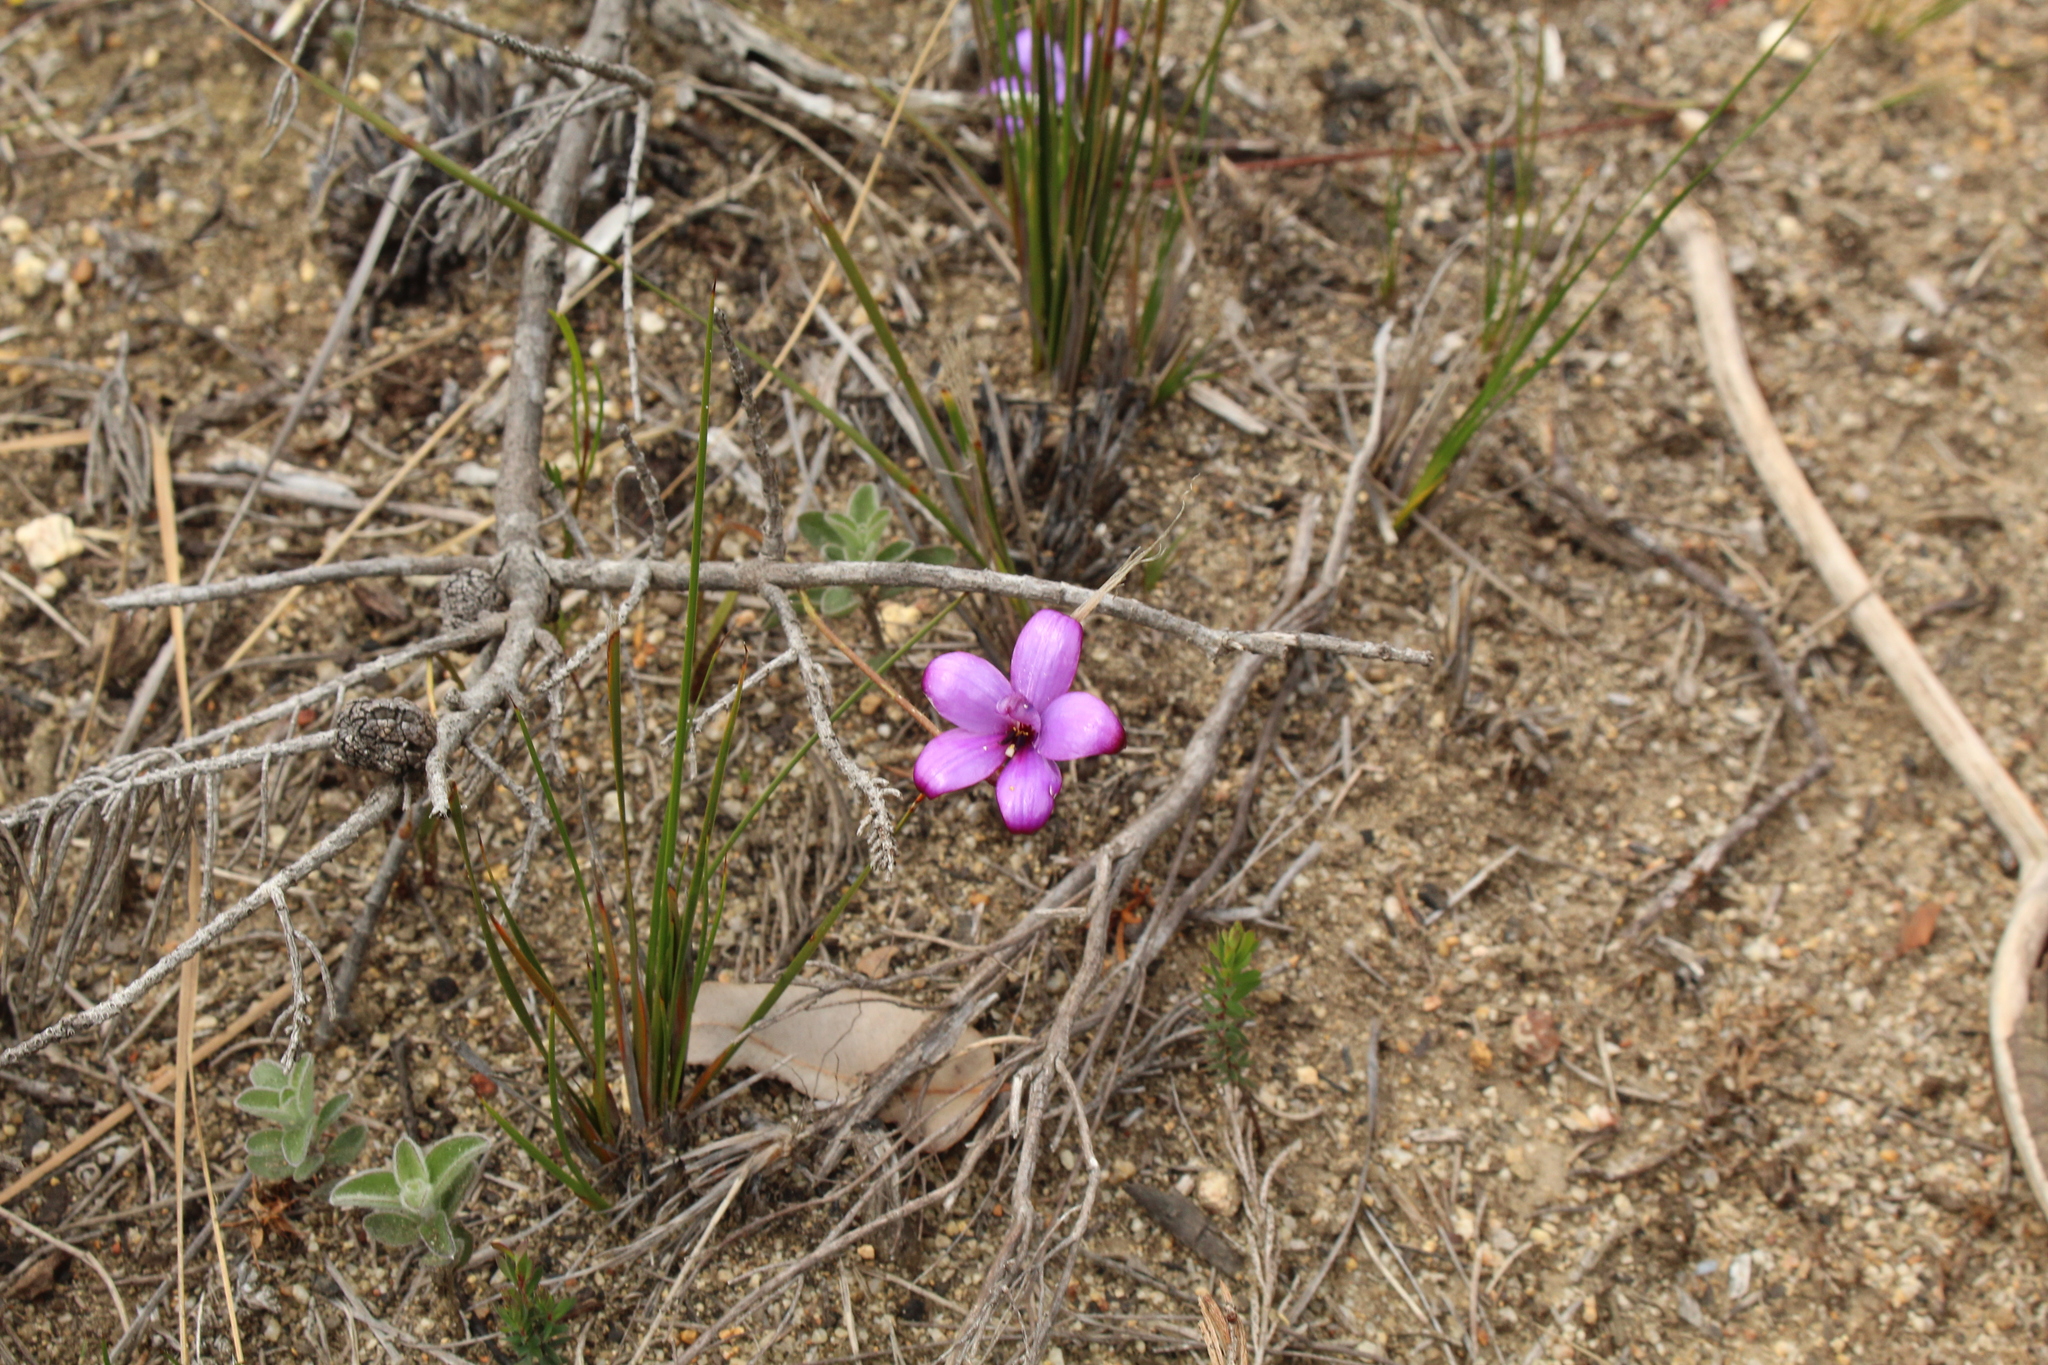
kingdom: Plantae
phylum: Tracheophyta
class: Liliopsida
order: Asparagales
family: Orchidaceae
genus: Caladenia
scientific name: Caladenia brunonis
